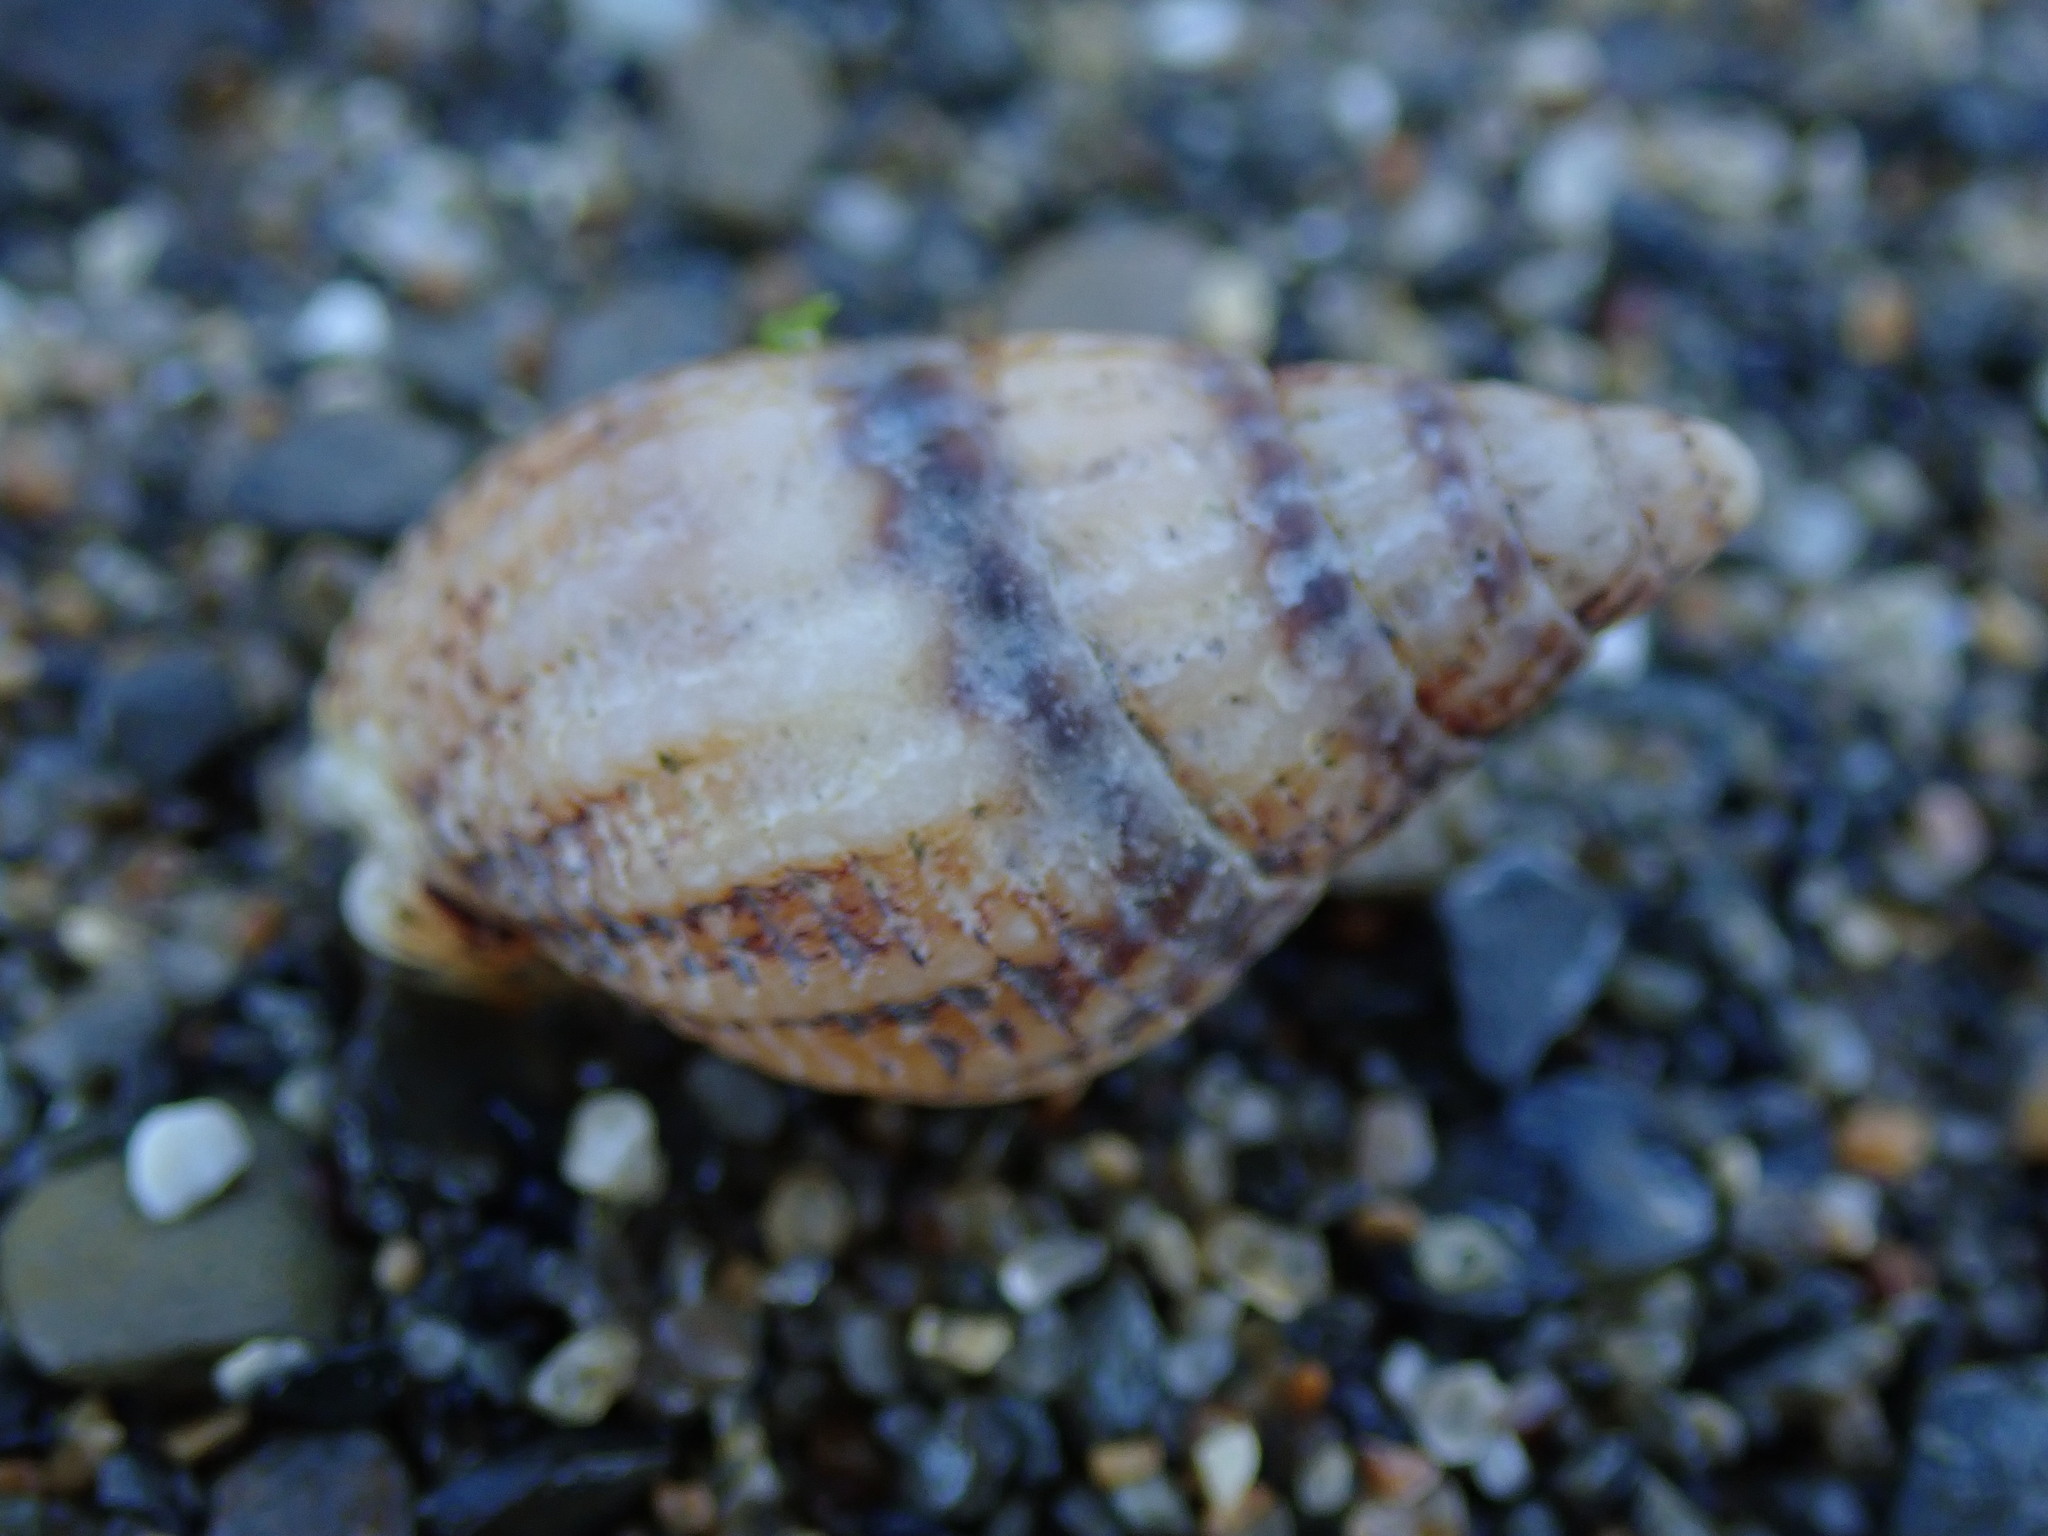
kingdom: Animalia
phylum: Mollusca
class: Gastropoda
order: Neogastropoda
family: Nassariidae
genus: Tritia
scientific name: Tritia reticulata
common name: Netted dog whelk
